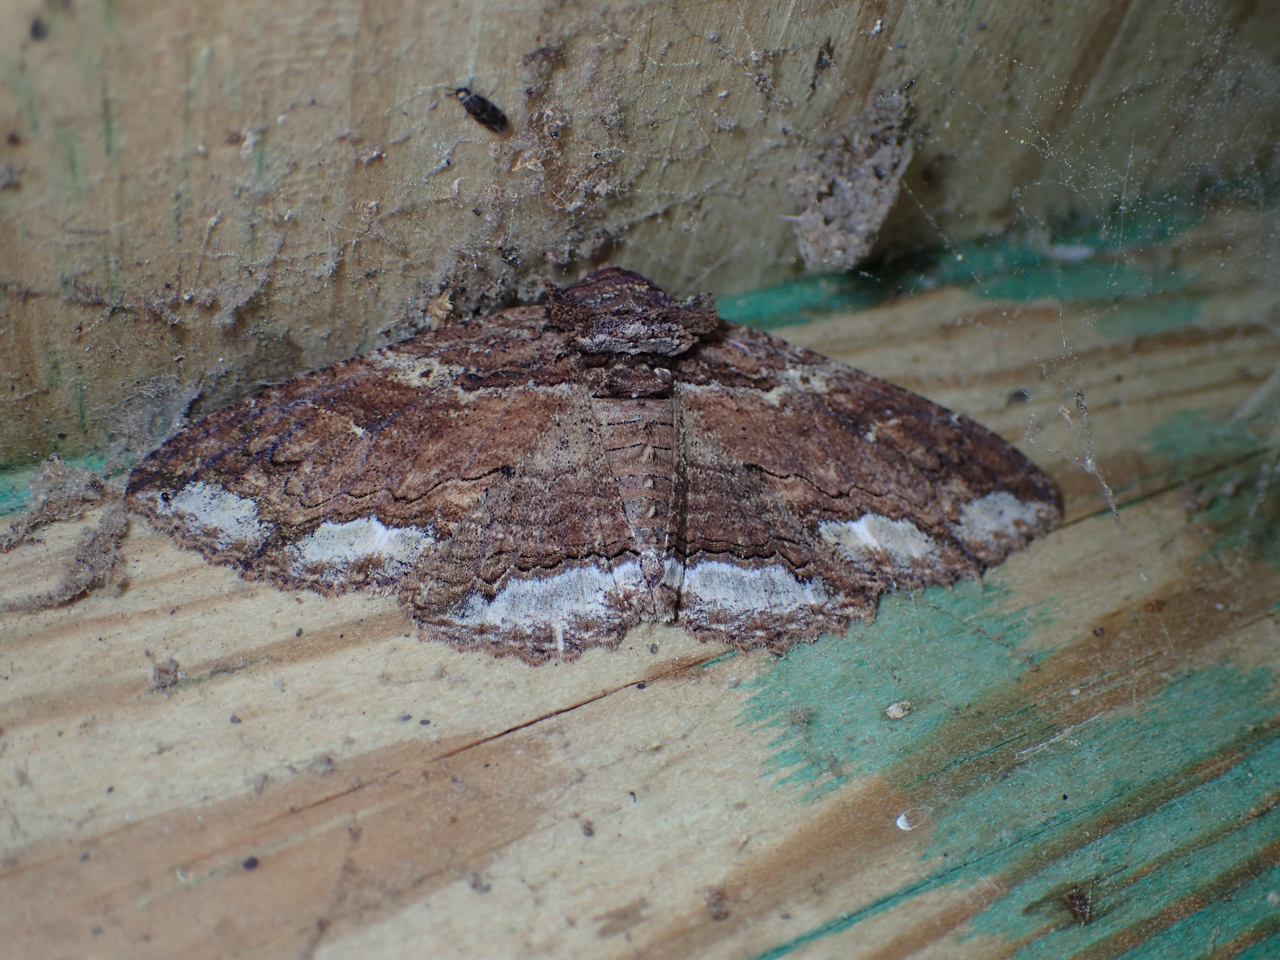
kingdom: Animalia
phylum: Arthropoda
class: Insecta
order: Lepidoptera
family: Erebidae
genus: Zale
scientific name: Zale lunata
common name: Lunate zale moth
